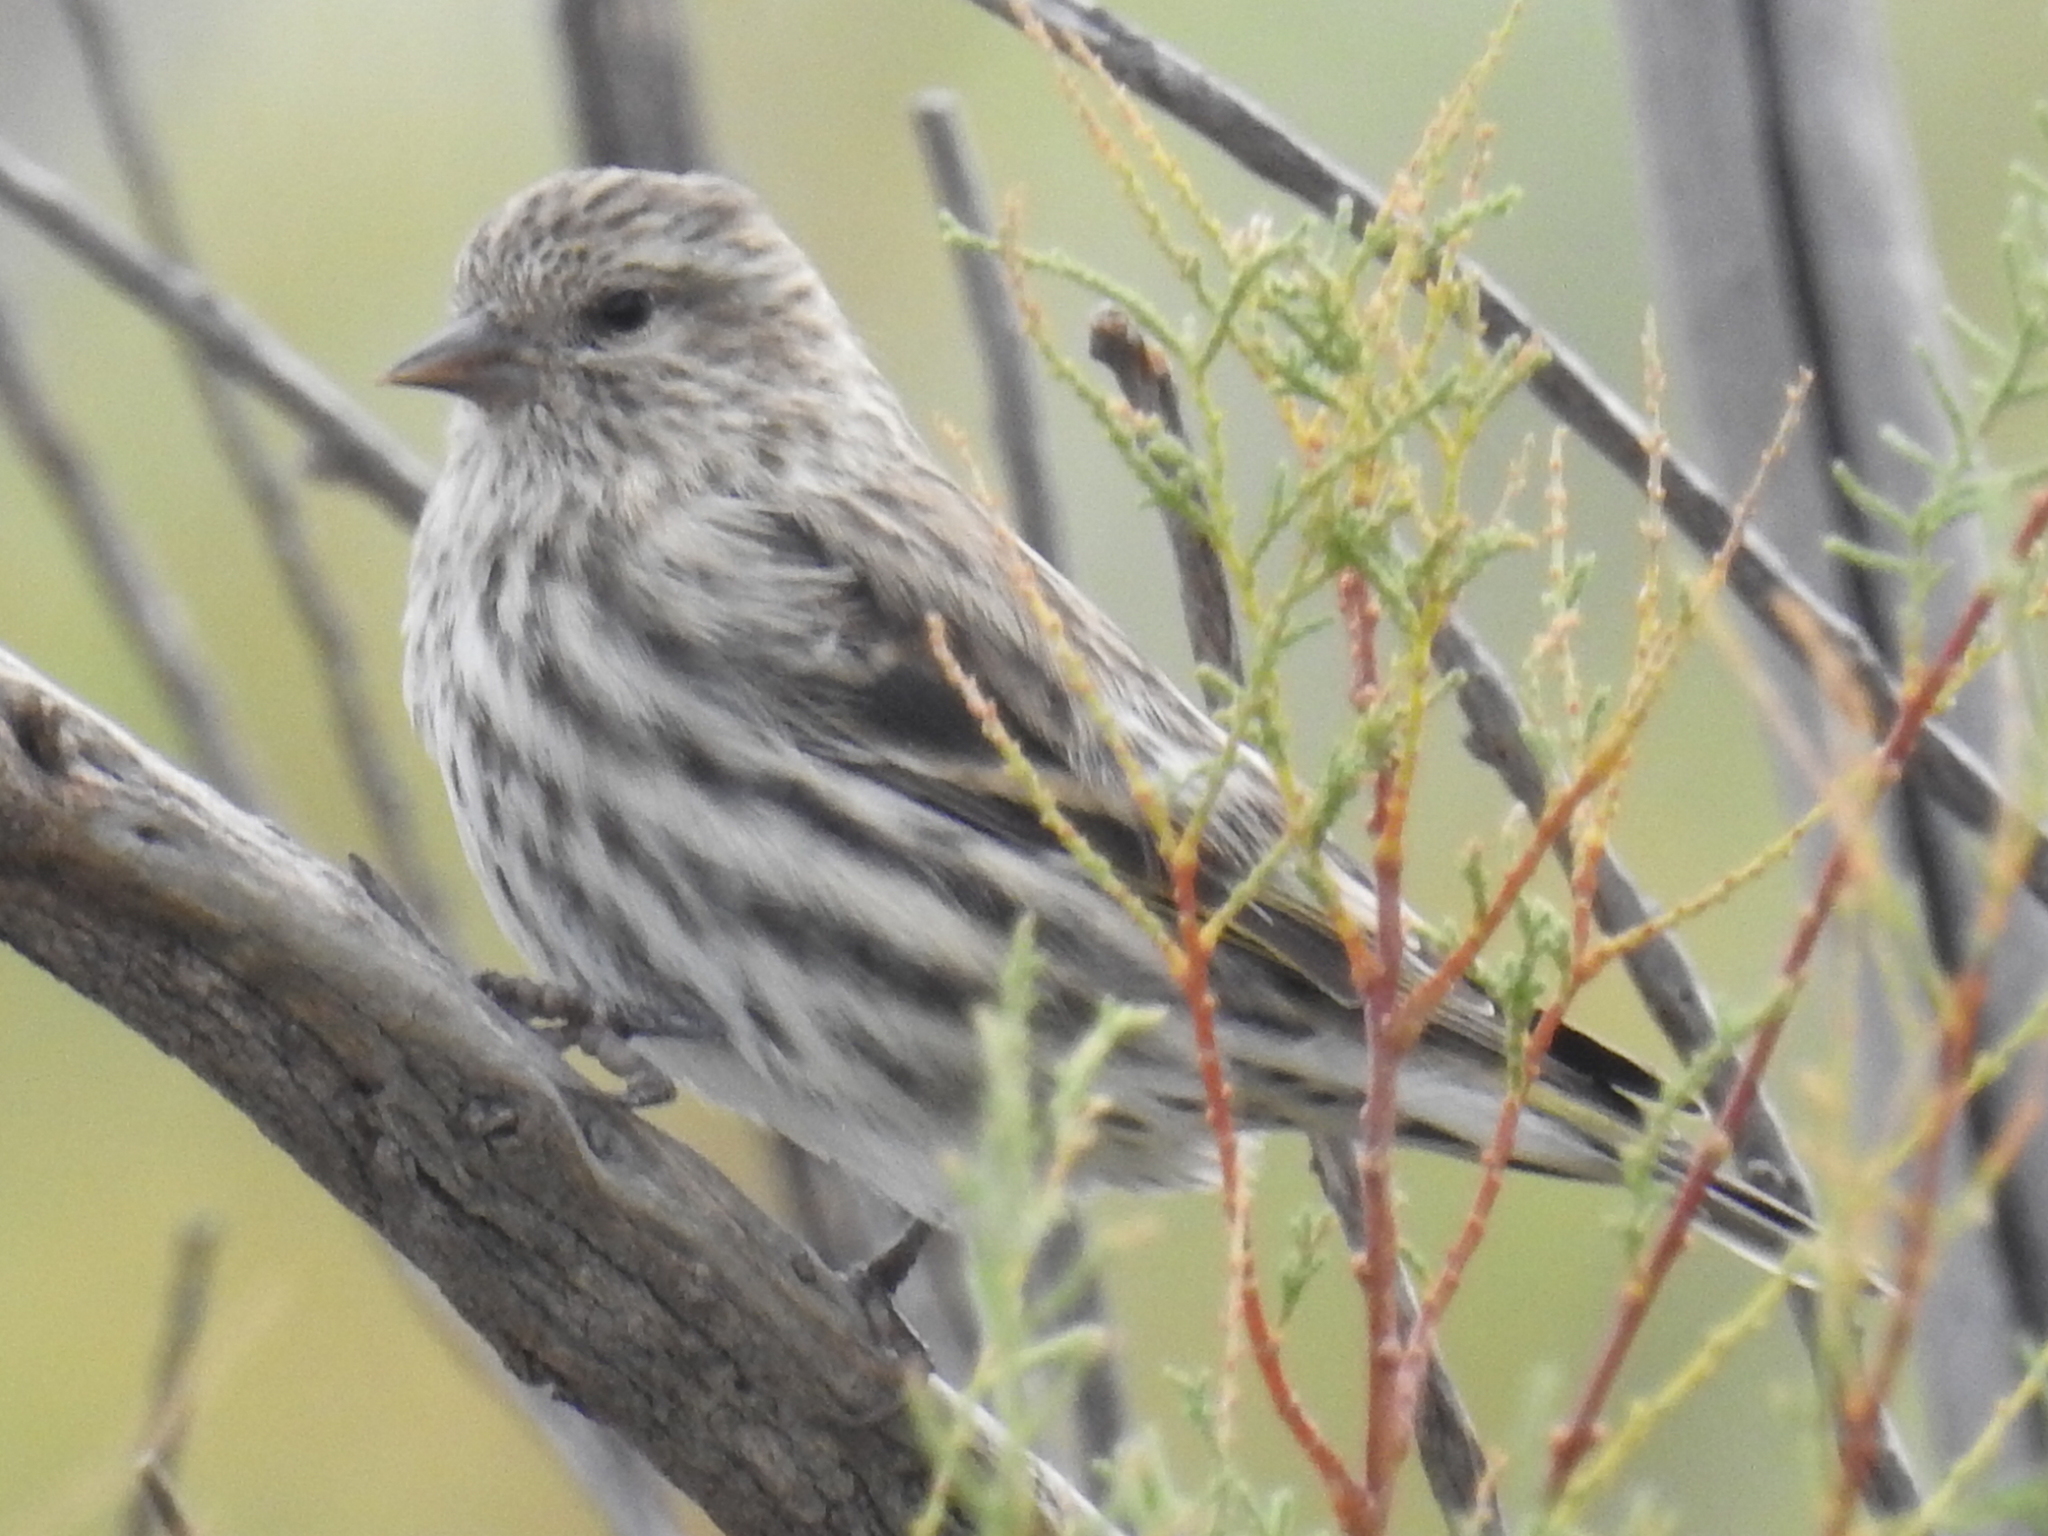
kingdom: Animalia
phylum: Chordata
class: Aves
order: Passeriformes
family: Fringillidae
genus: Spinus
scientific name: Spinus pinus
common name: Pine siskin
